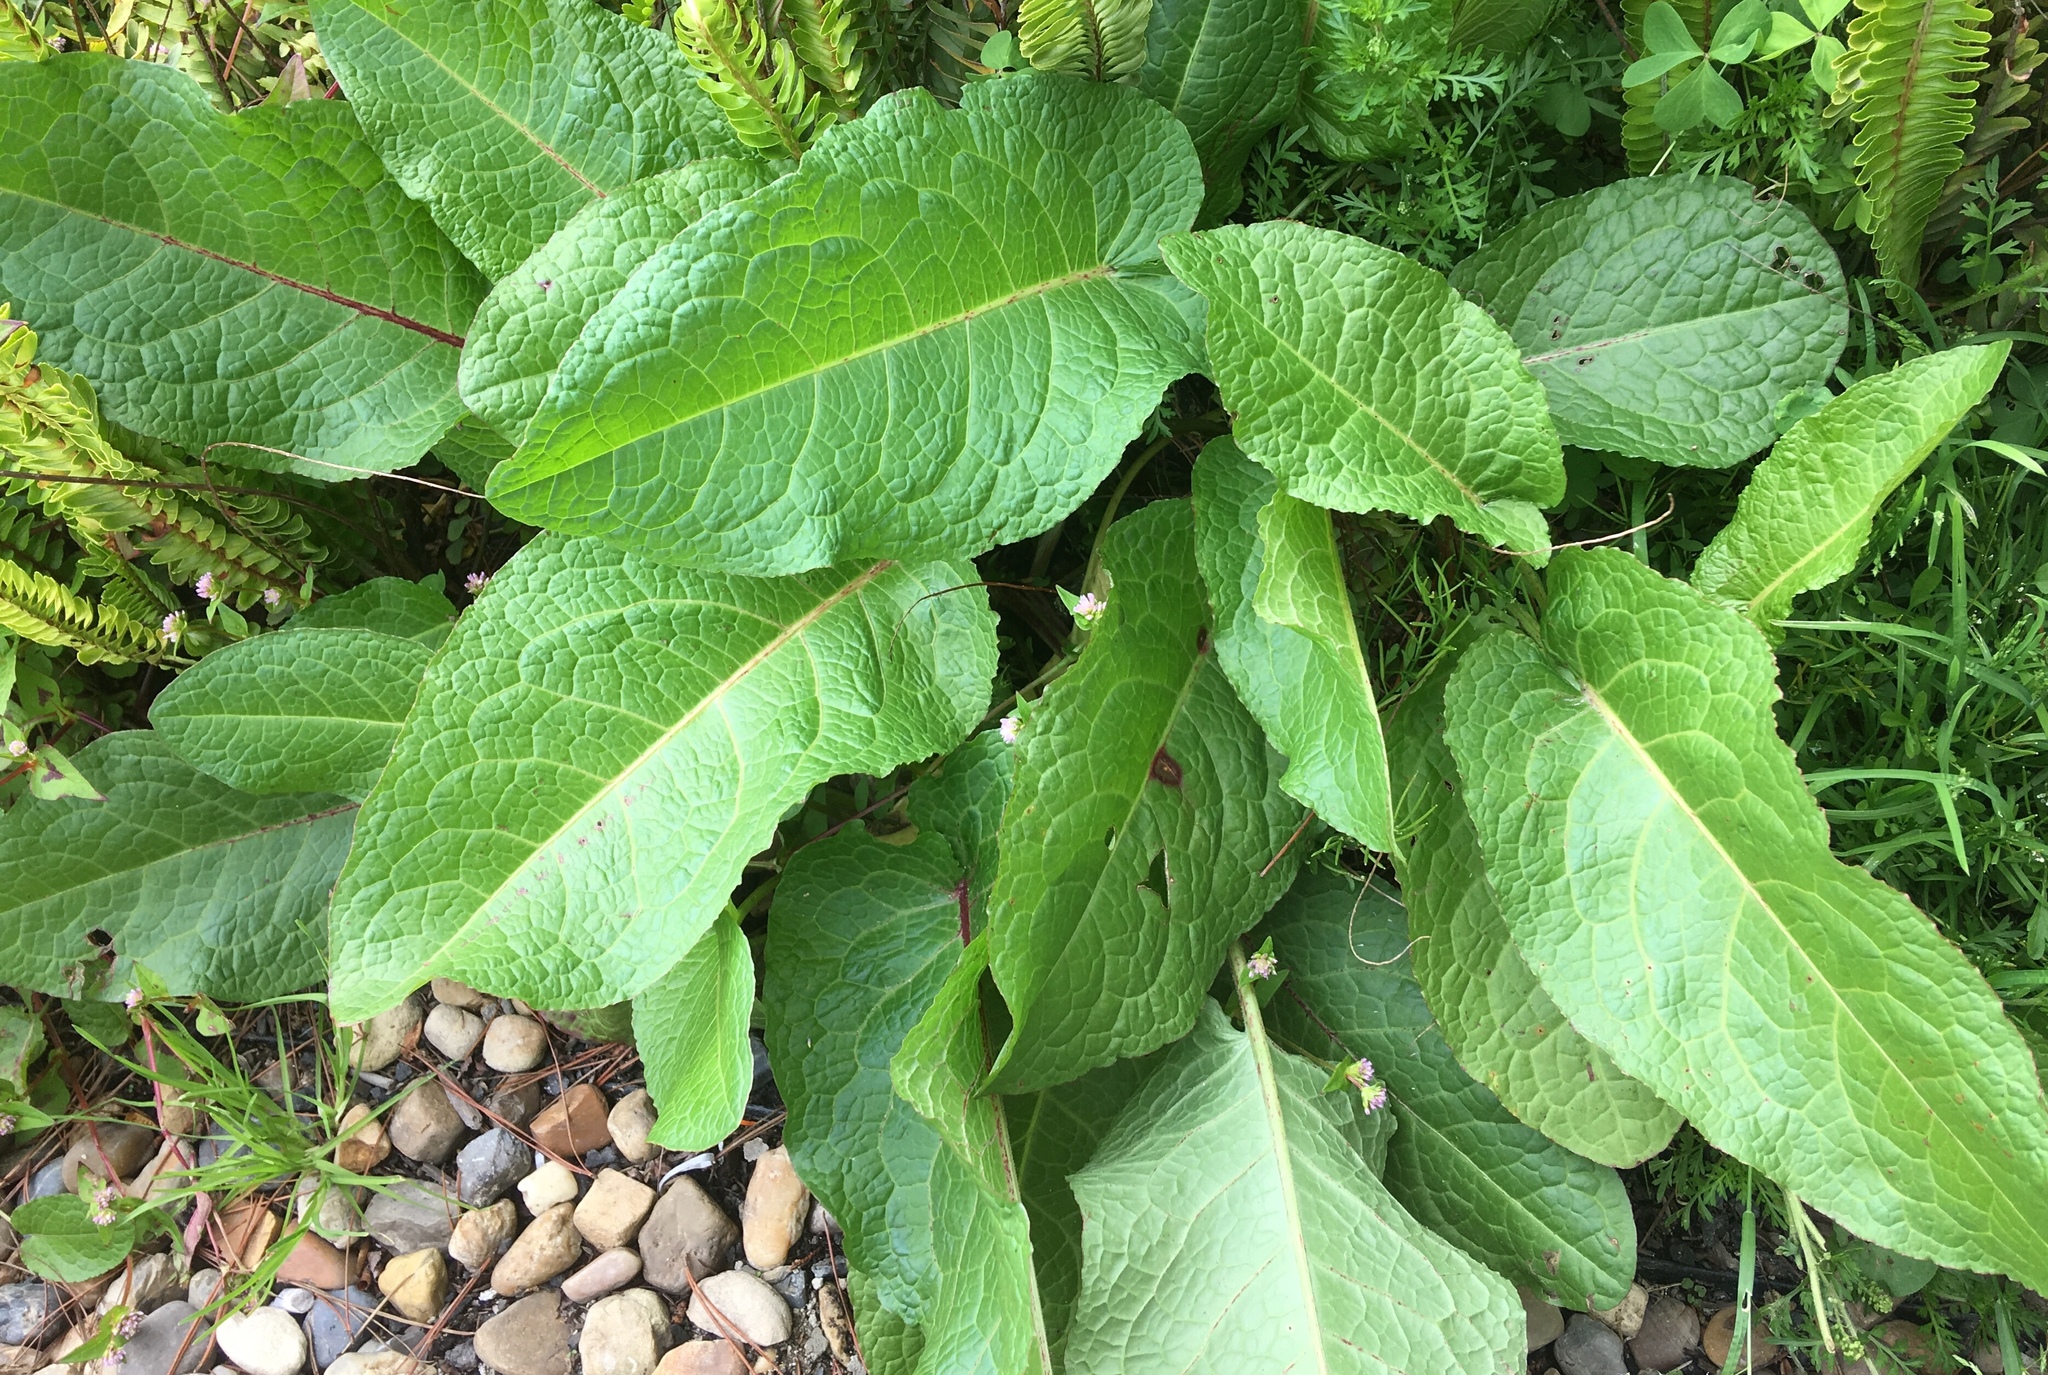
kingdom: Plantae
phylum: Tracheophyta
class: Magnoliopsida
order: Caryophyllales
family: Polygonaceae
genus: Rumex
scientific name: Rumex crispus
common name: Curled dock
